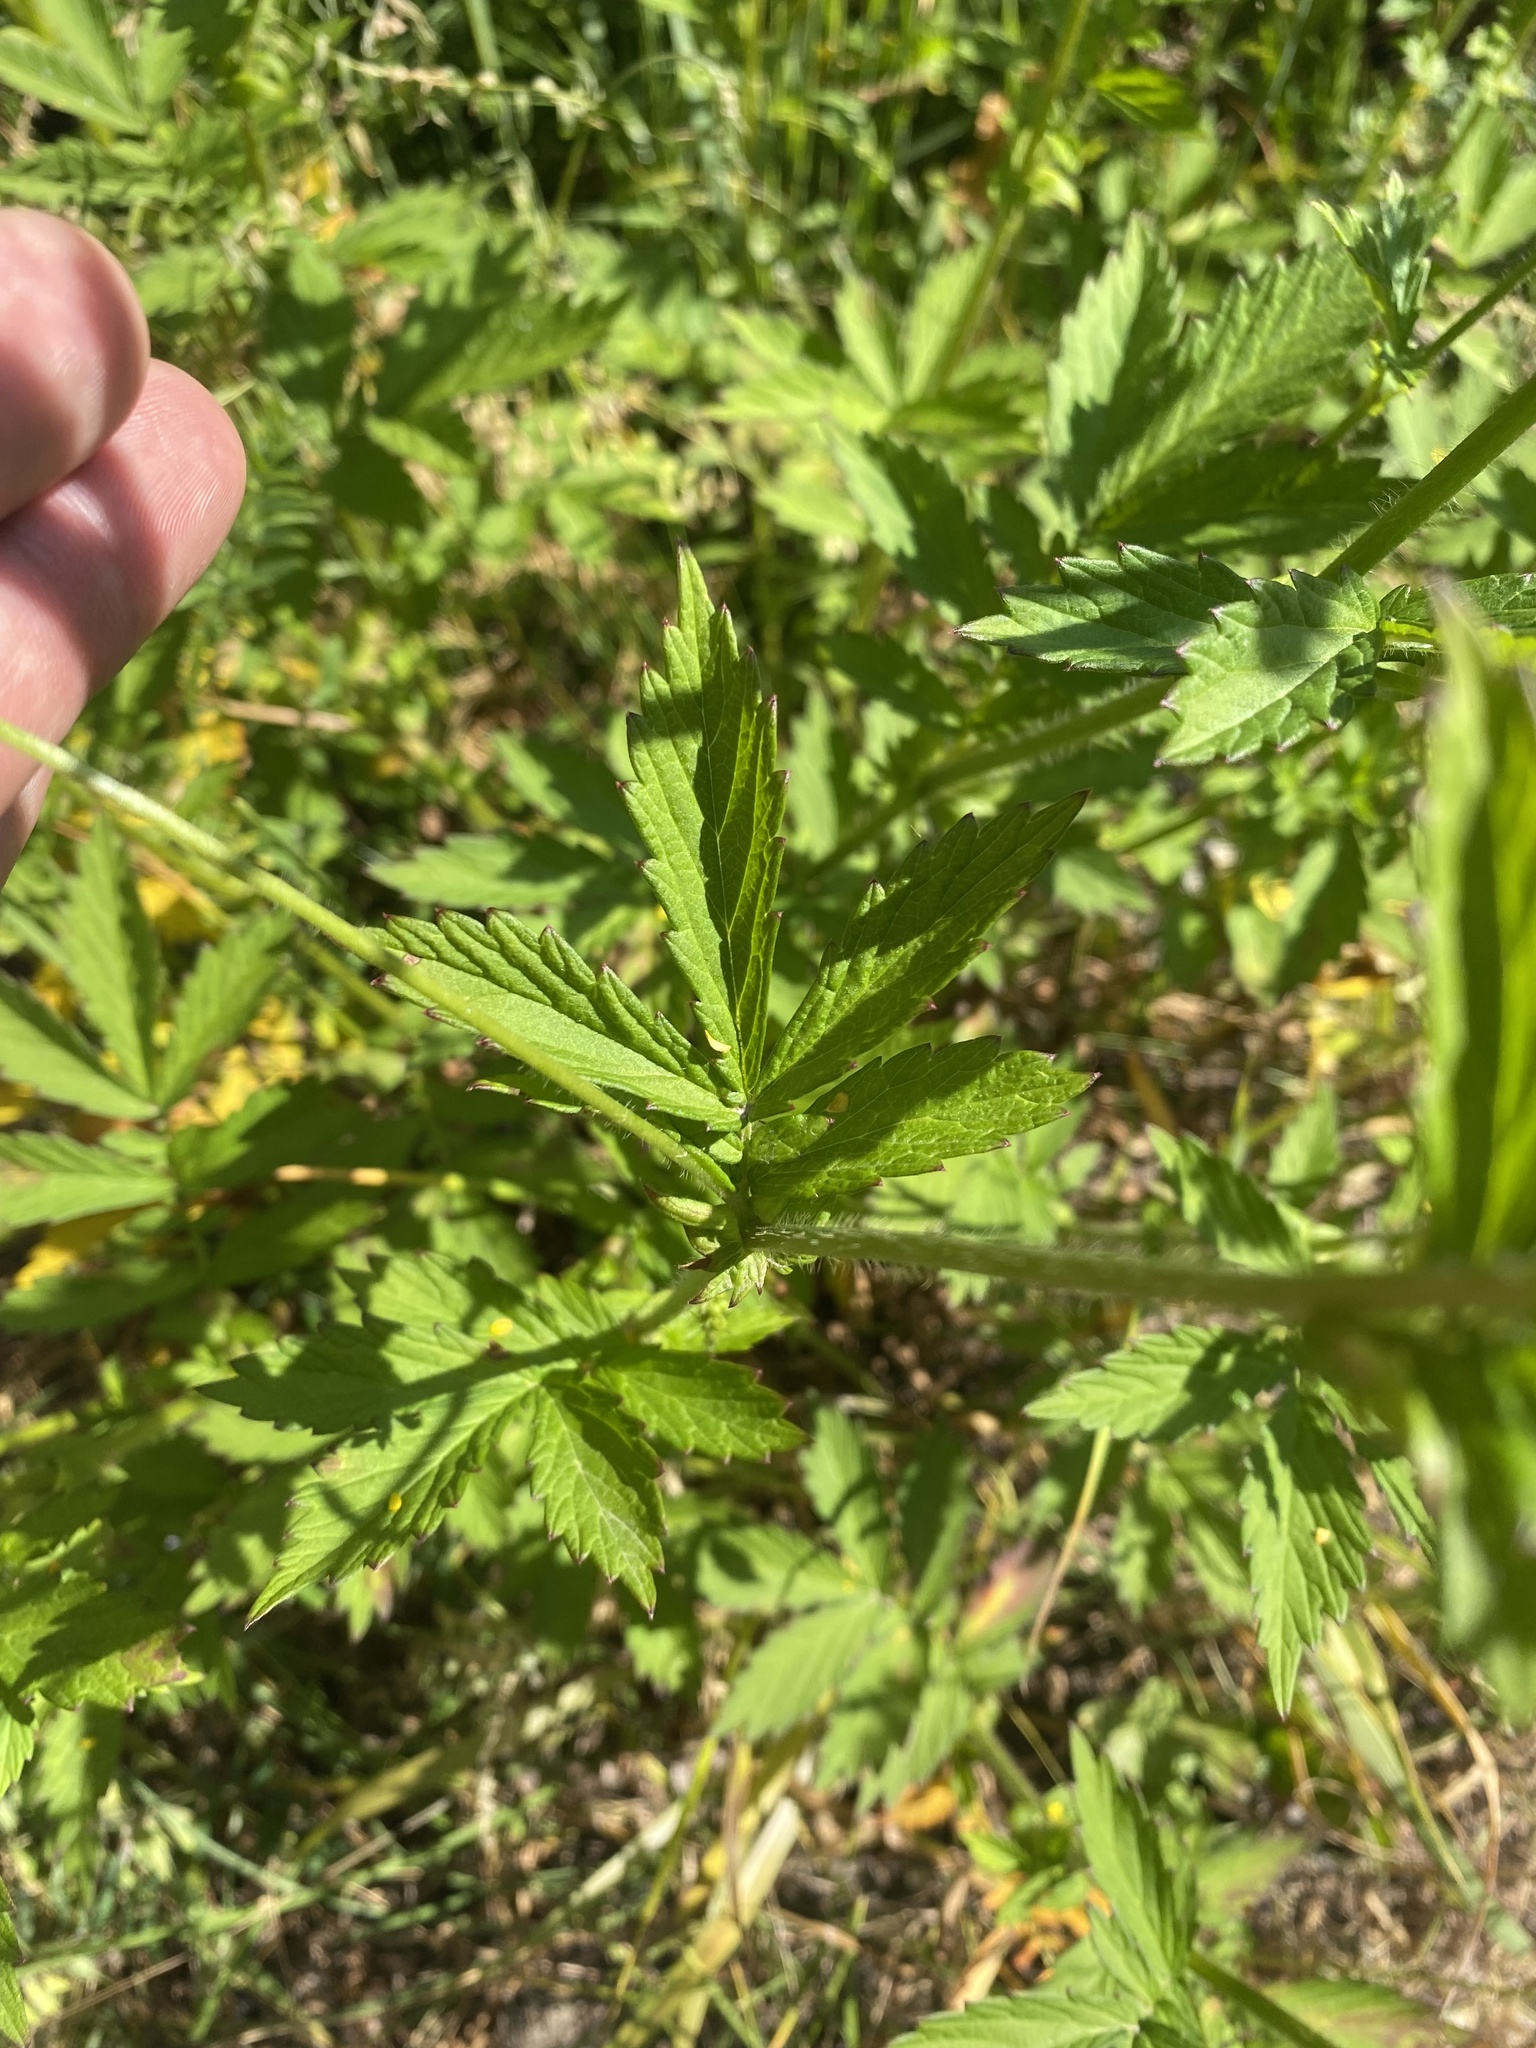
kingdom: Plantae
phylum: Tracheophyta
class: Magnoliopsida
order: Rosales
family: Rosaceae
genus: Agrimonia
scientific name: Agrimonia pilosa
